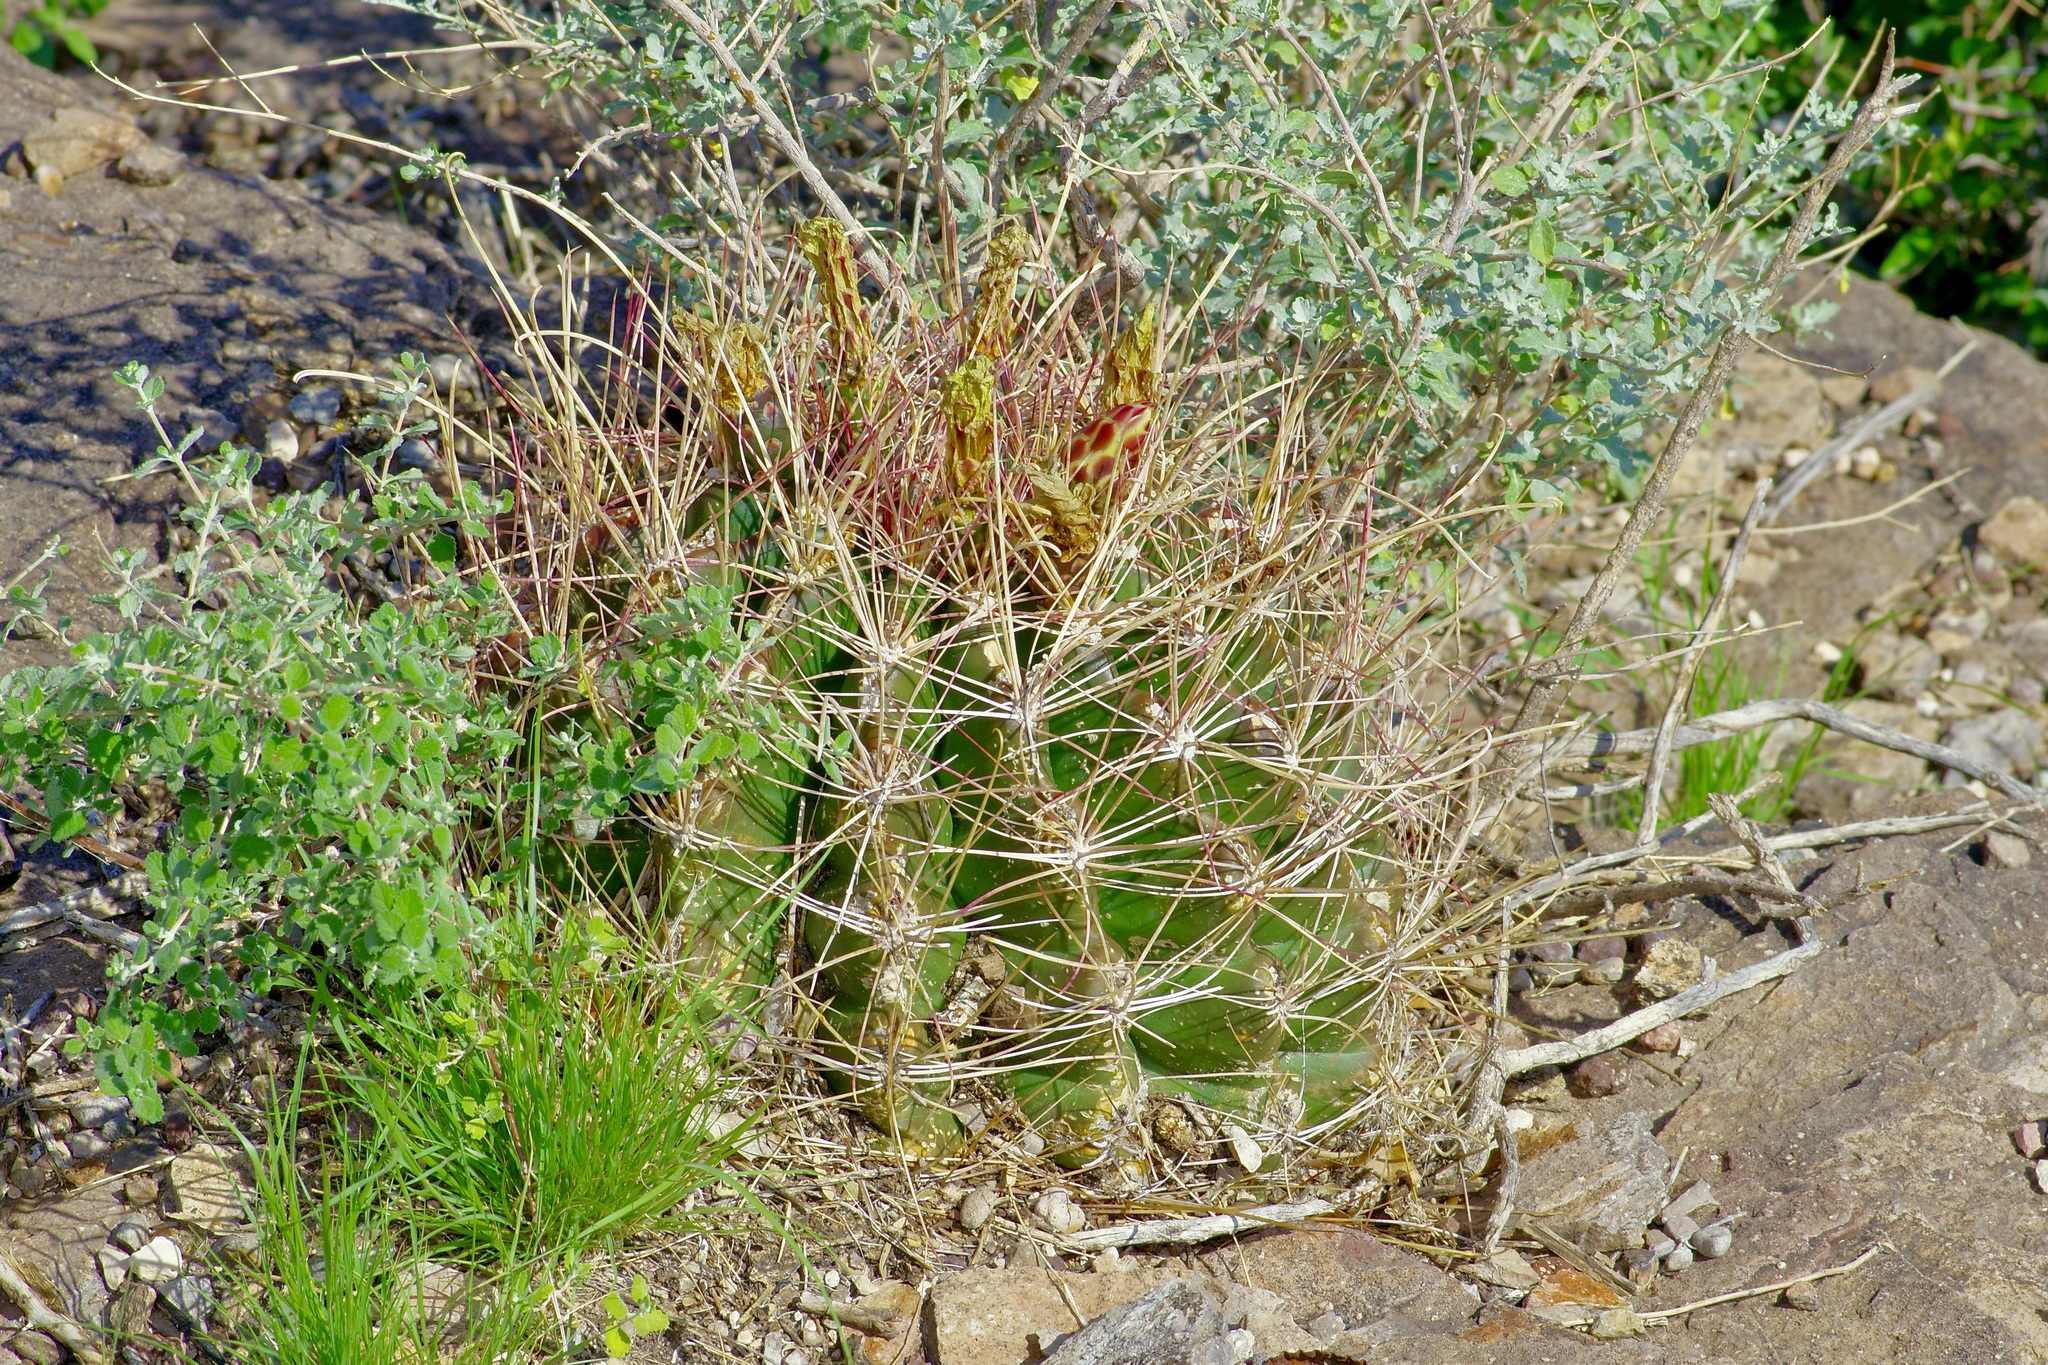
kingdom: Plantae
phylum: Tracheophyta
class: Magnoliopsida
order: Caryophyllales
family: Cactaceae
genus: Bisnaga
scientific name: Bisnaga hamatacantha
